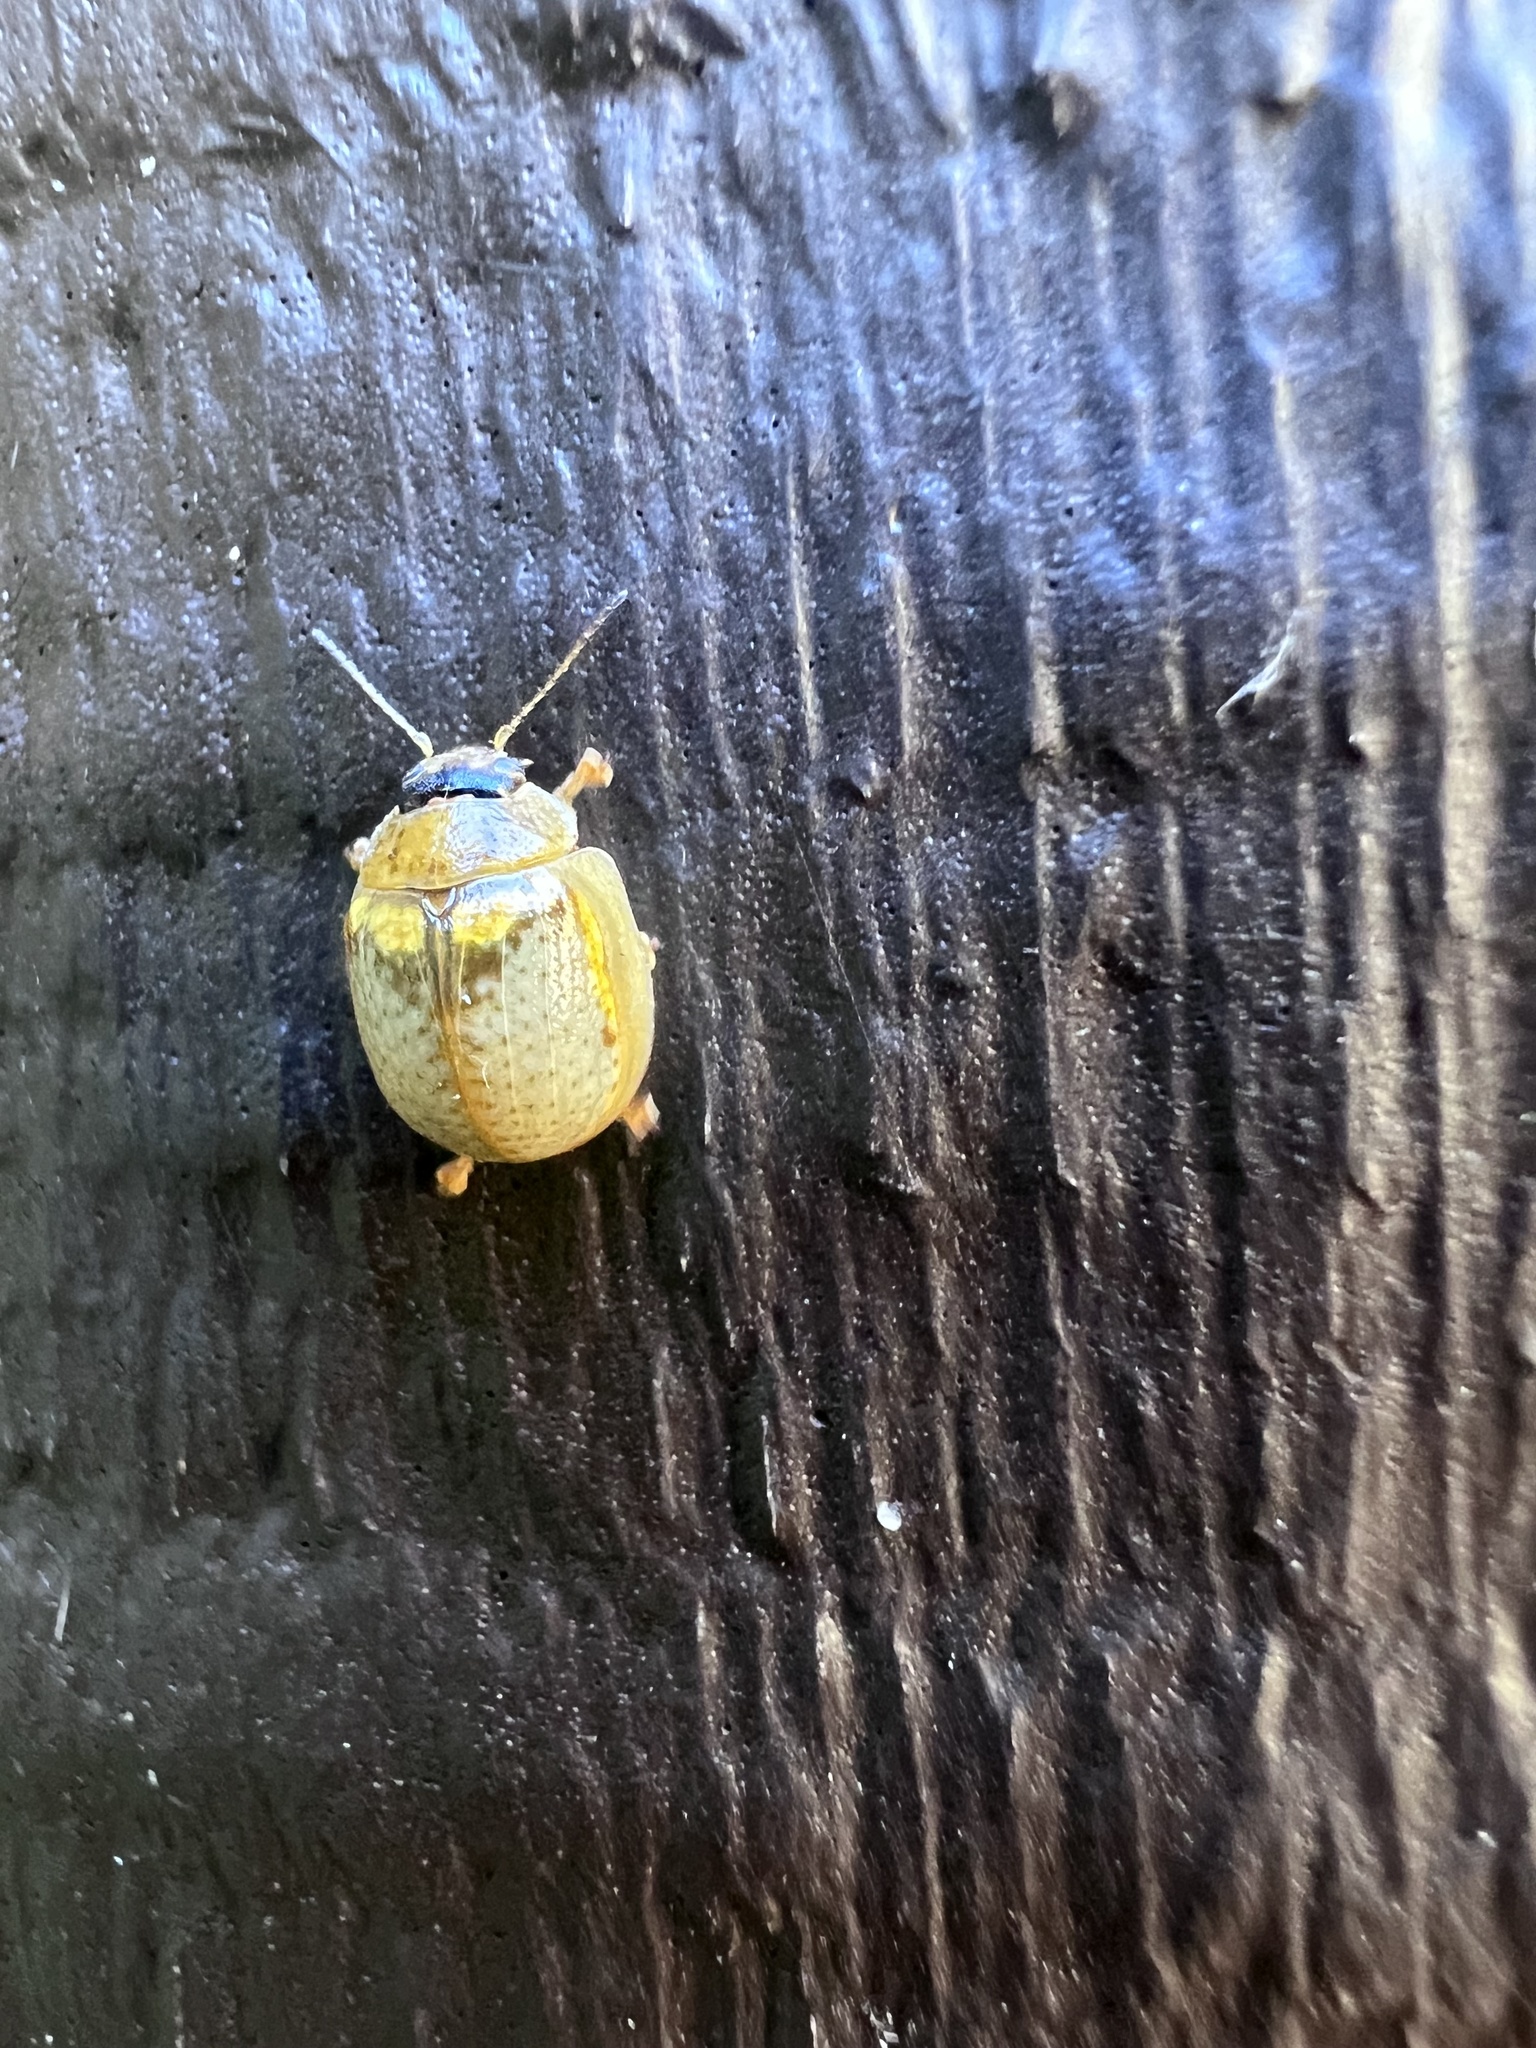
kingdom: Animalia
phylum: Arthropoda
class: Insecta
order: Coleoptera
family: Chrysomelidae
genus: Paropsisterna
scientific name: Paropsisterna m-fuscum
